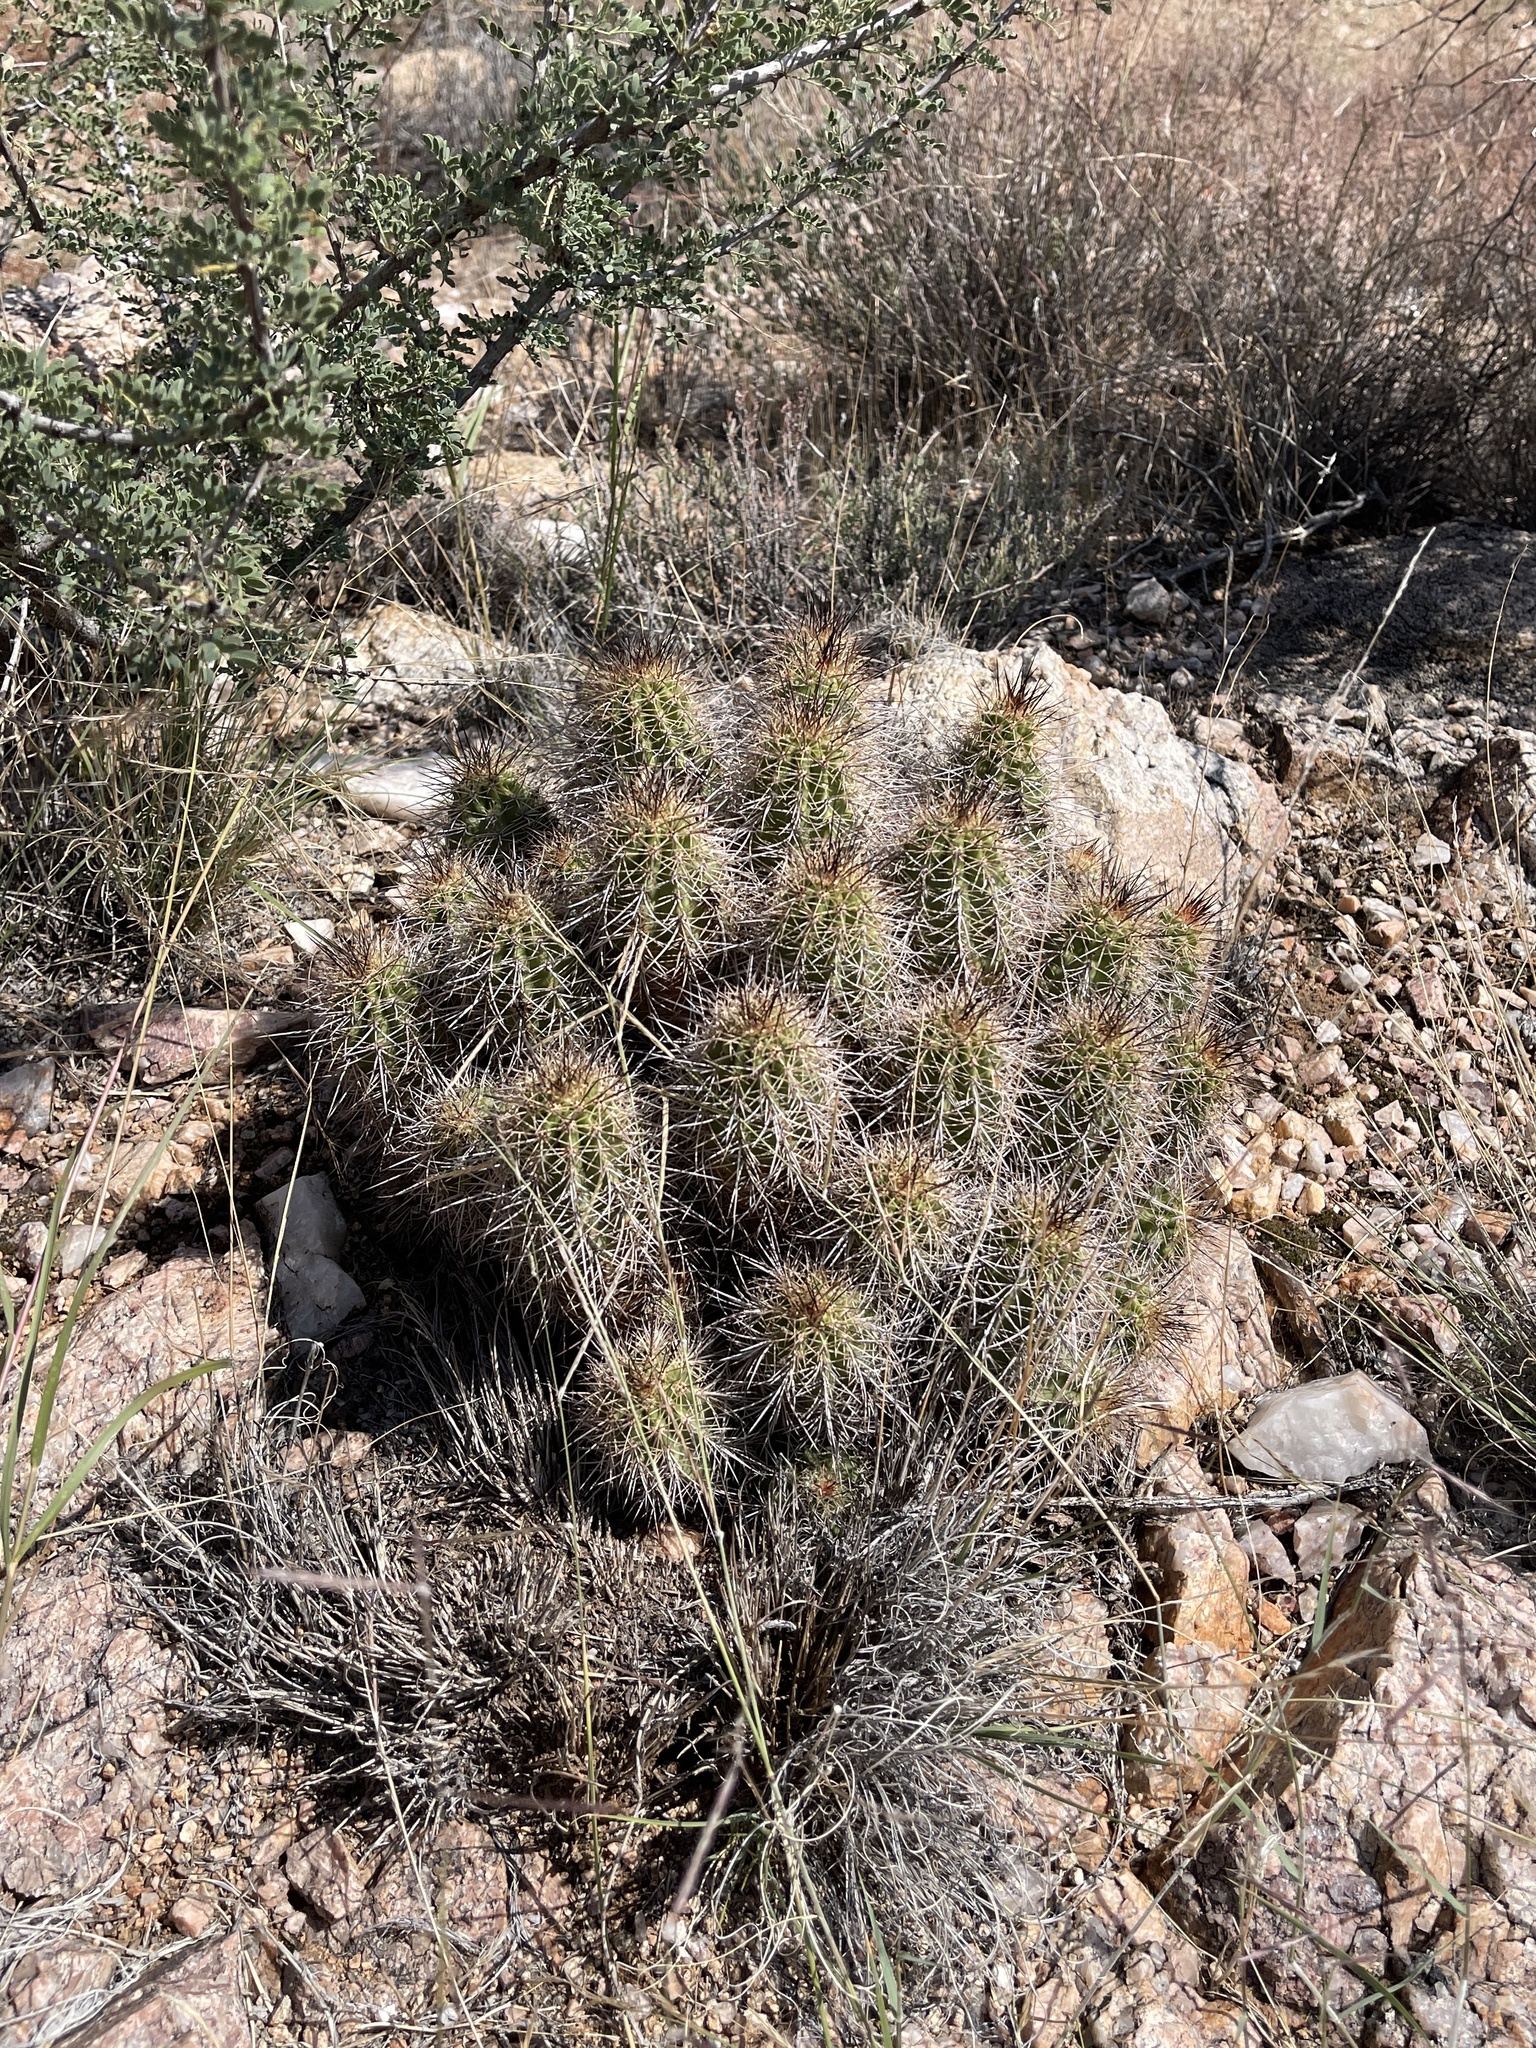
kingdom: Plantae
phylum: Tracheophyta
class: Magnoliopsida
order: Caryophyllales
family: Cactaceae
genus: Echinocereus
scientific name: Echinocereus bakeri
